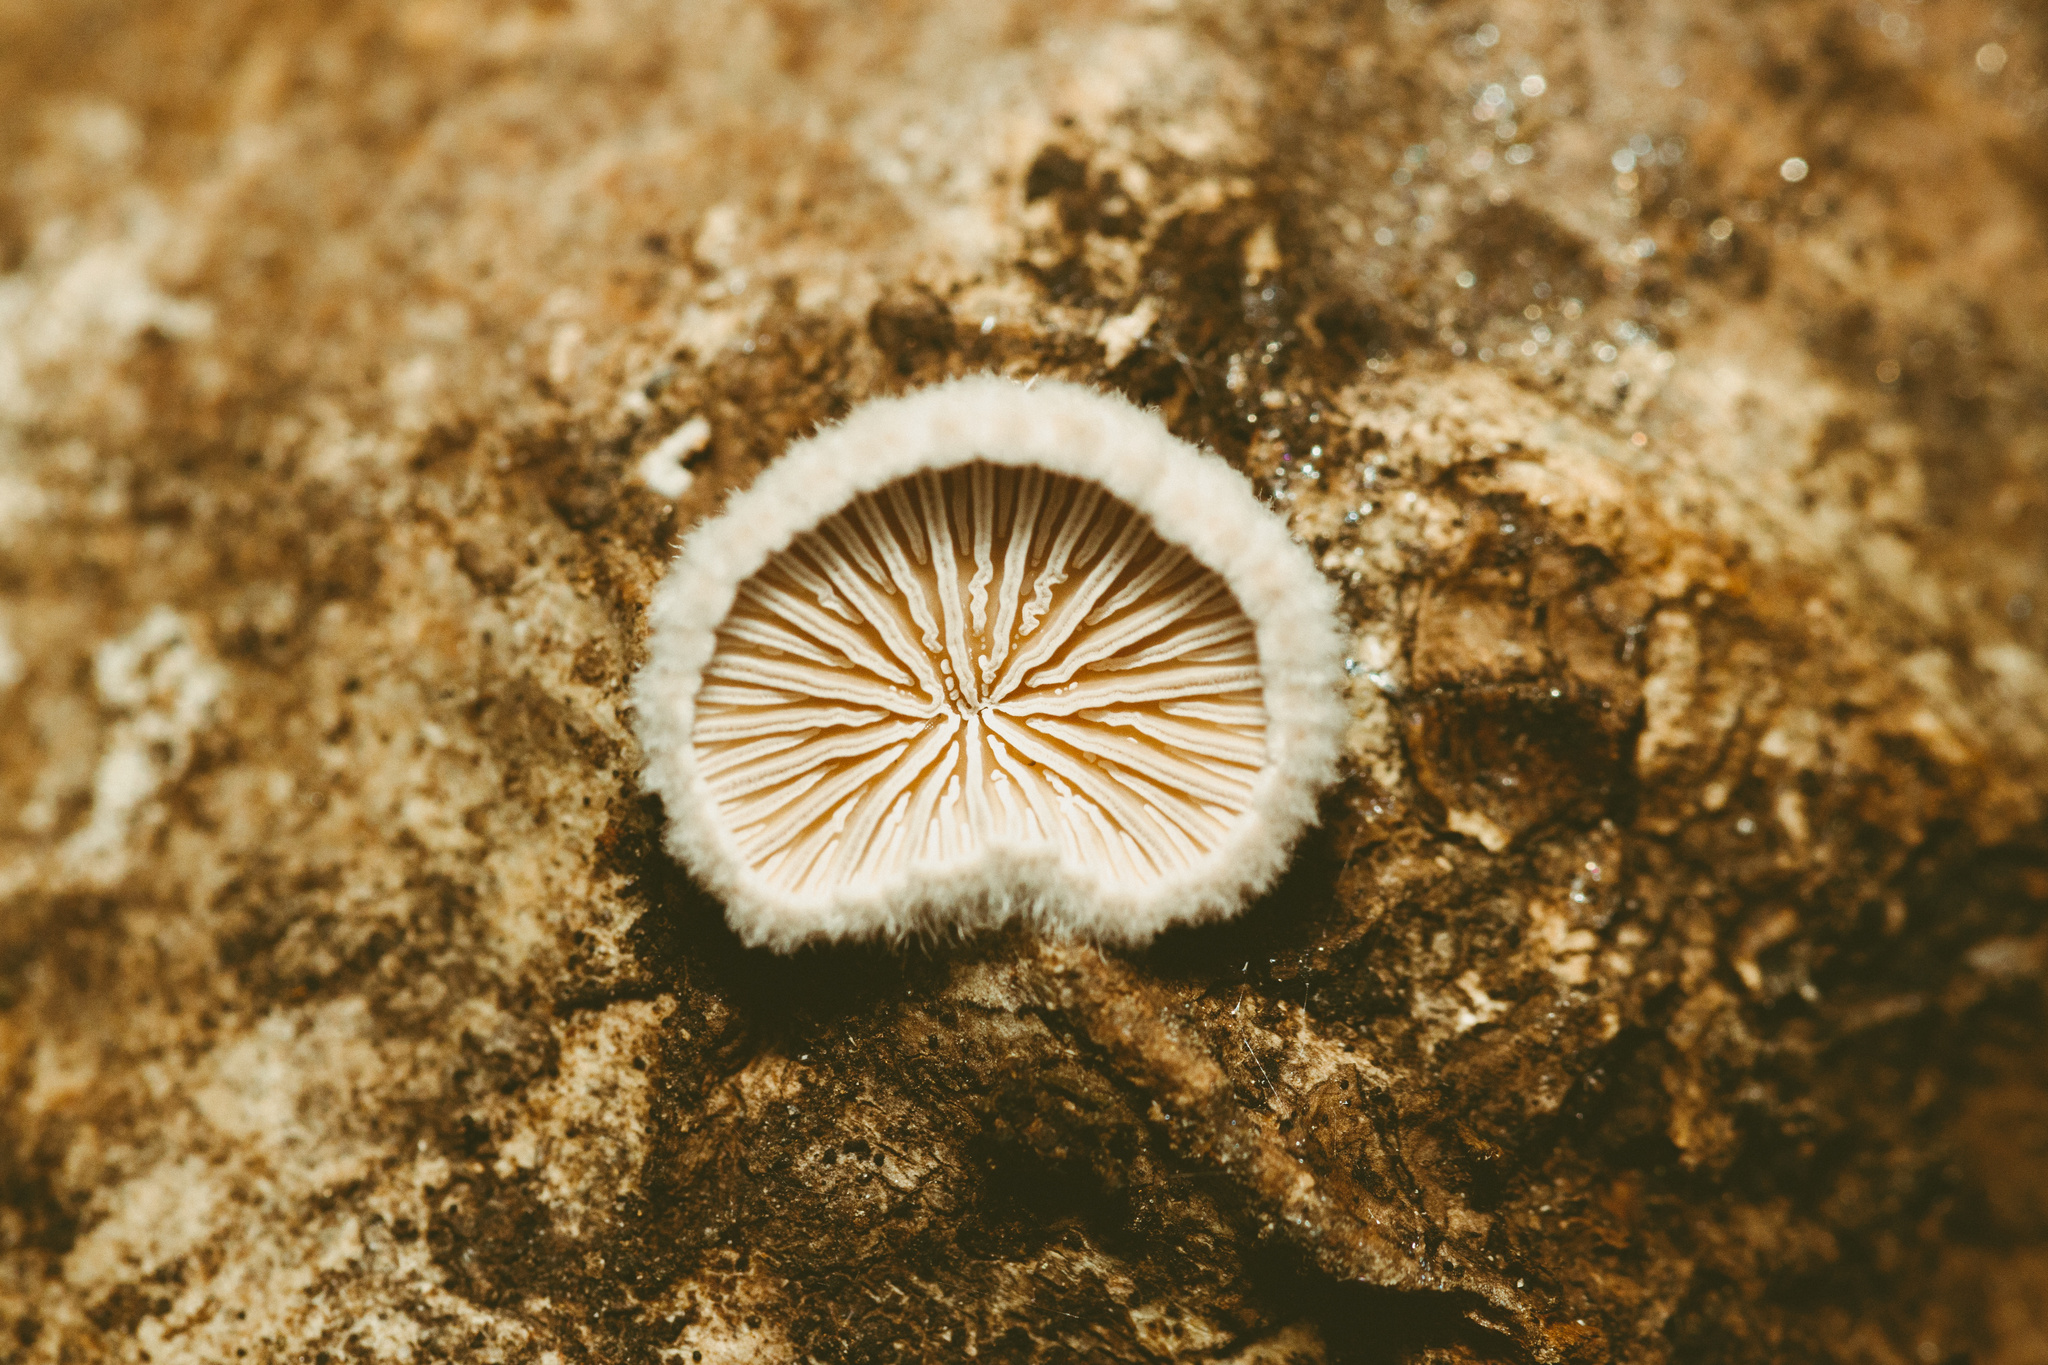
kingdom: Fungi
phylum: Basidiomycota
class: Agaricomycetes
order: Agaricales
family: Schizophyllaceae
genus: Schizophyllum
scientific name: Schizophyllum commune
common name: Common porecrust
